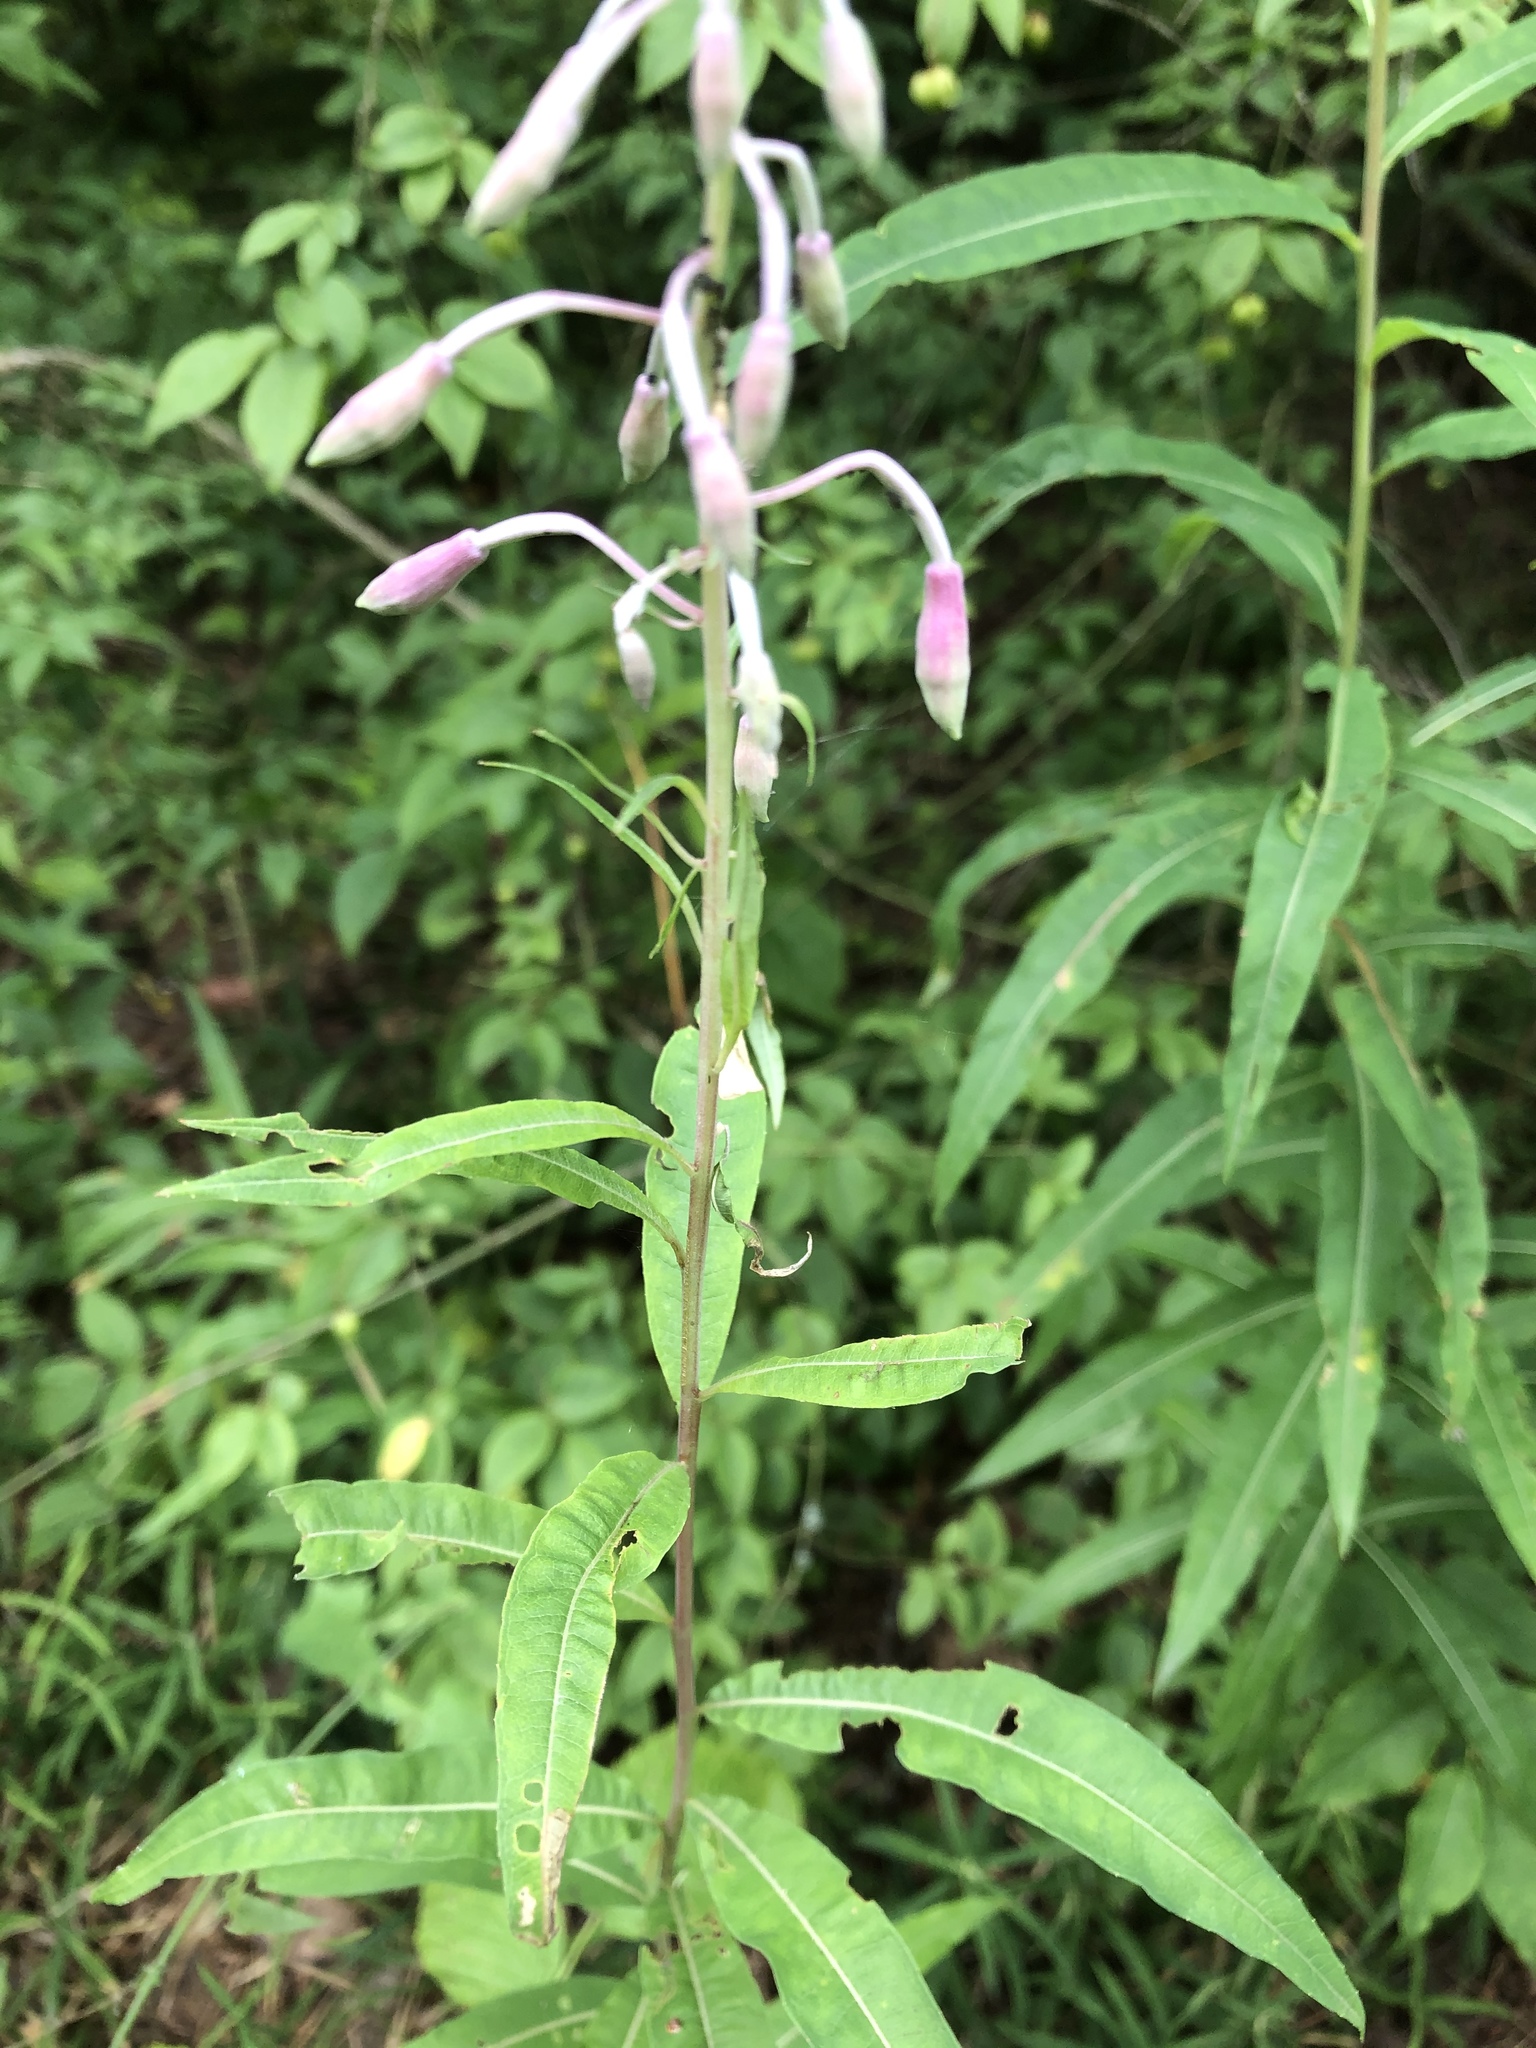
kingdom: Plantae
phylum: Tracheophyta
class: Magnoliopsida
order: Myrtales
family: Onagraceae
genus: Chamaenerion
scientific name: Chamaenerion angustifolium
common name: Fireweed
